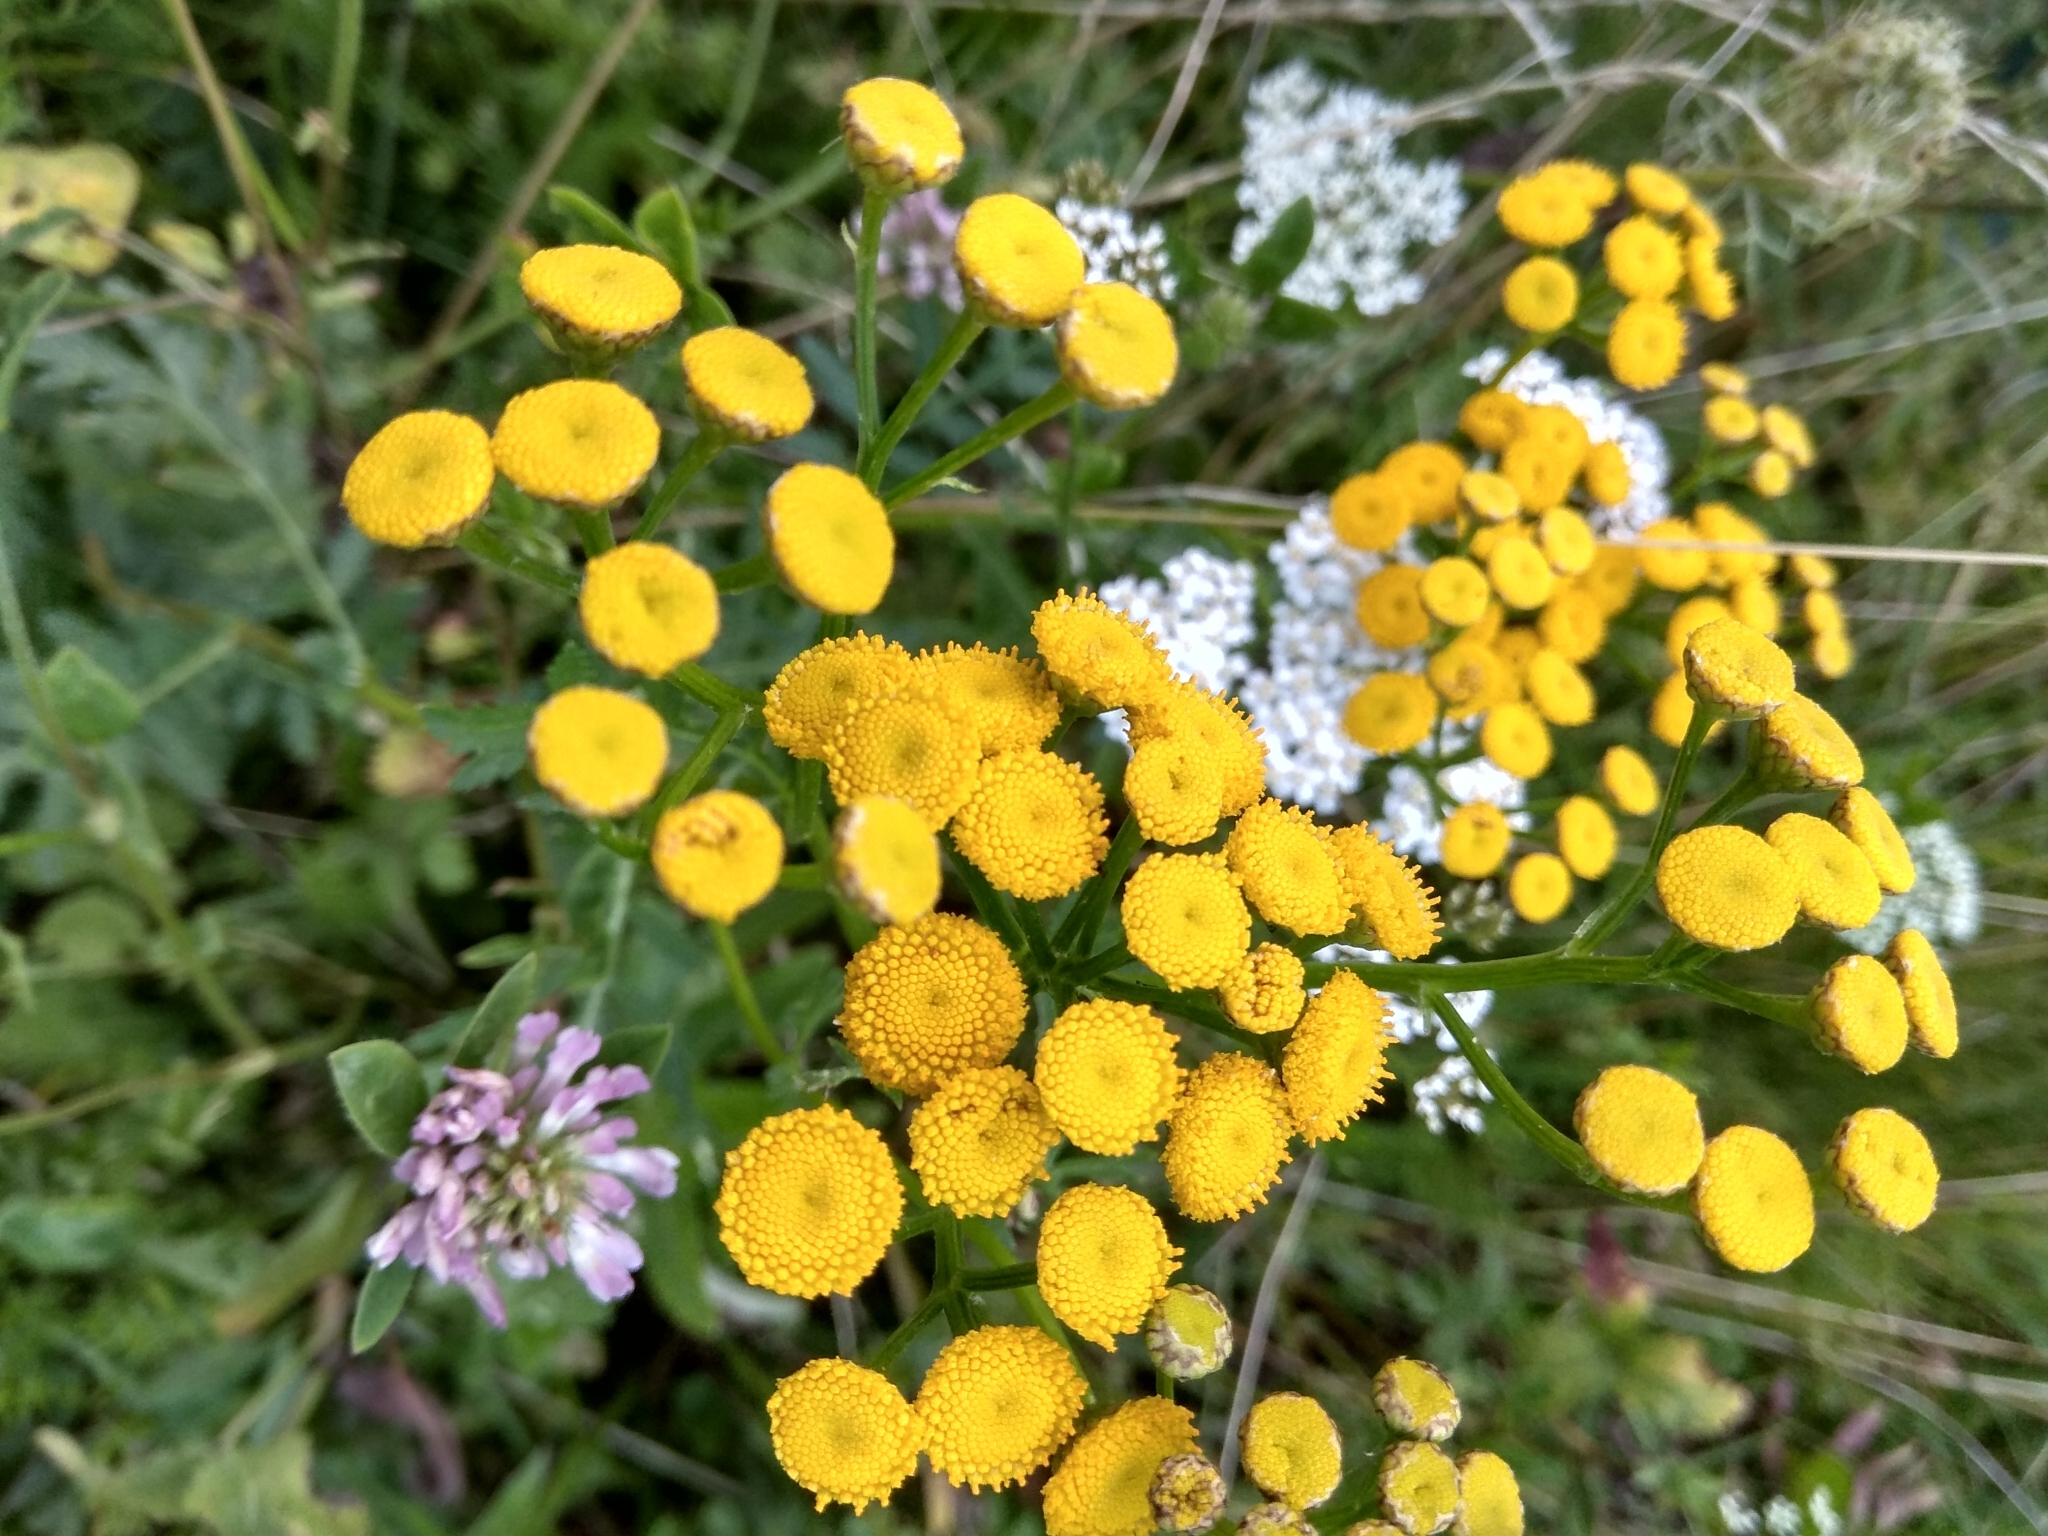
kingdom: Plantae
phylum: Tracheophyta
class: Magnoliopsida
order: Asterales
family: Asteraceae
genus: Tanacetum
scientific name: Tanacetum vulgare
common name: Common tansy
